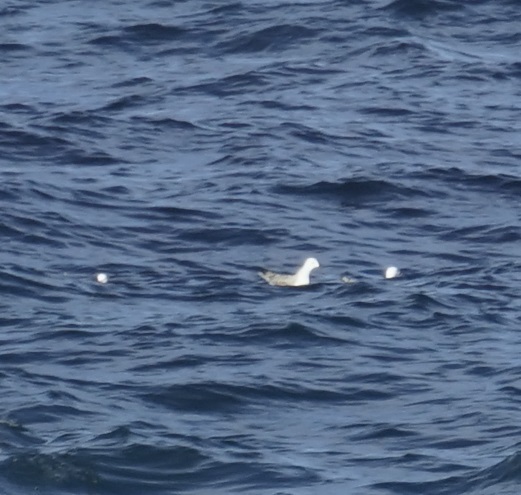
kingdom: Animalia
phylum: Chordata
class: Aves
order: Charadriiformes
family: Laridae
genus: Chroicocephalus
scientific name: Chroicocephalus novaehollandiae
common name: Silver gull
